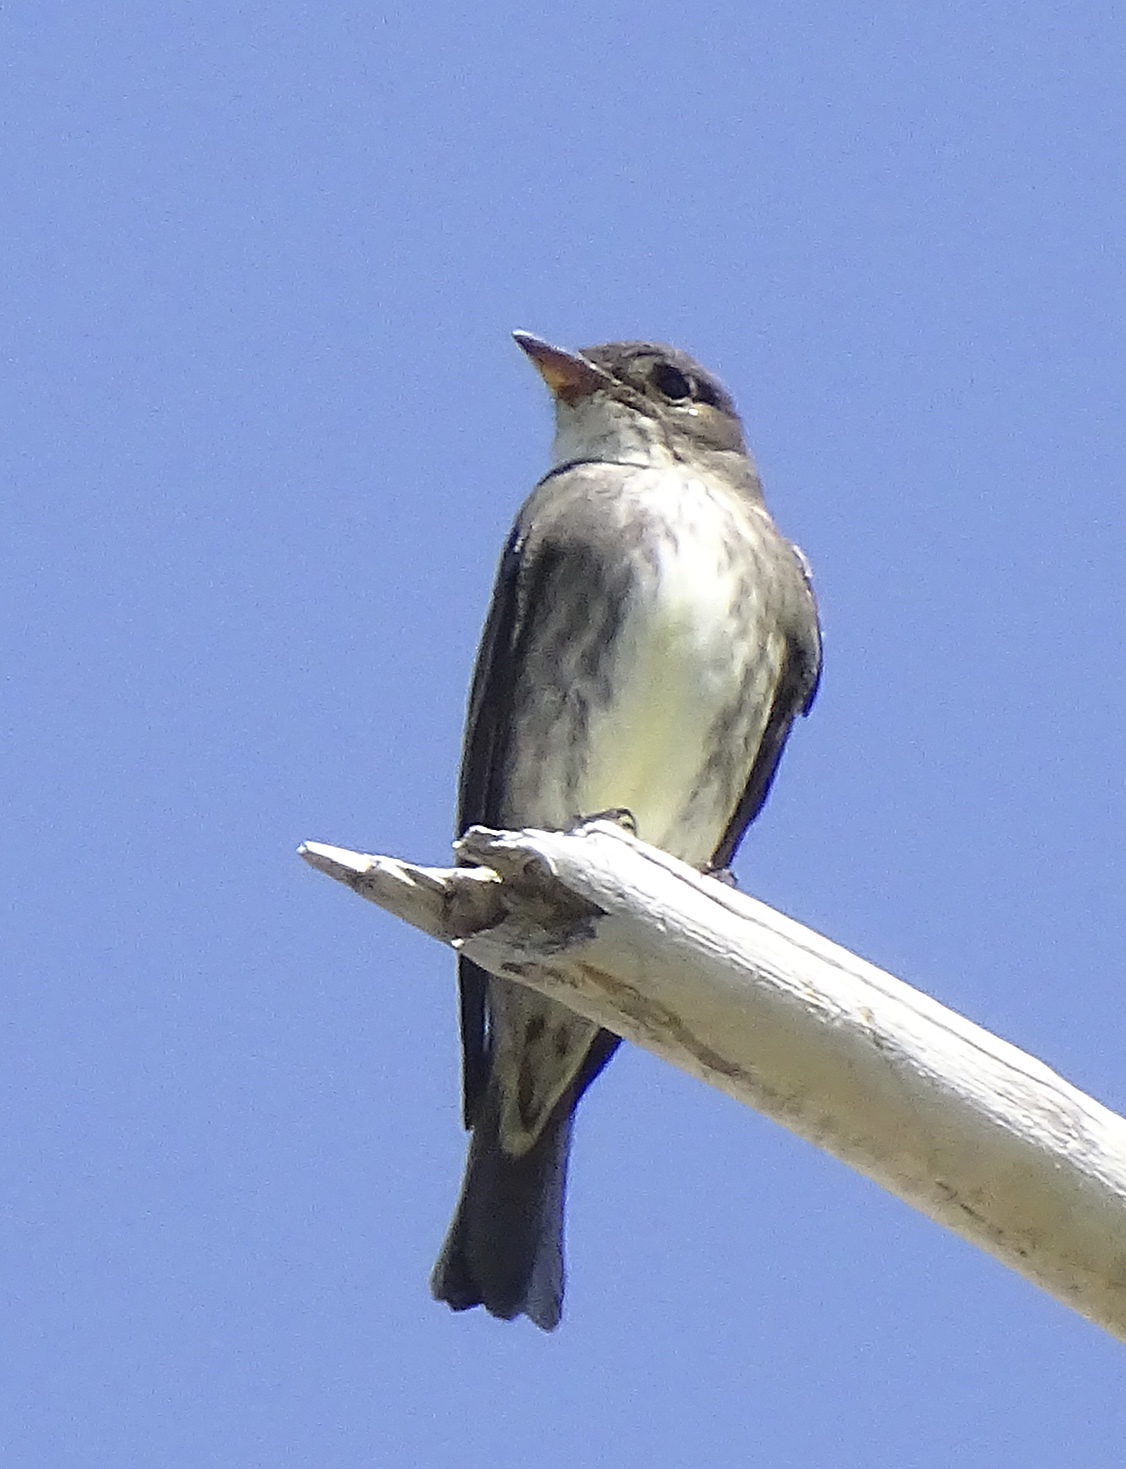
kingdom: Animalia
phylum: Chordata
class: Aves
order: Passeriformes
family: Tyrannidae
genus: Contopus
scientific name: Contopus cooperi
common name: Olive-sided flycatcher
